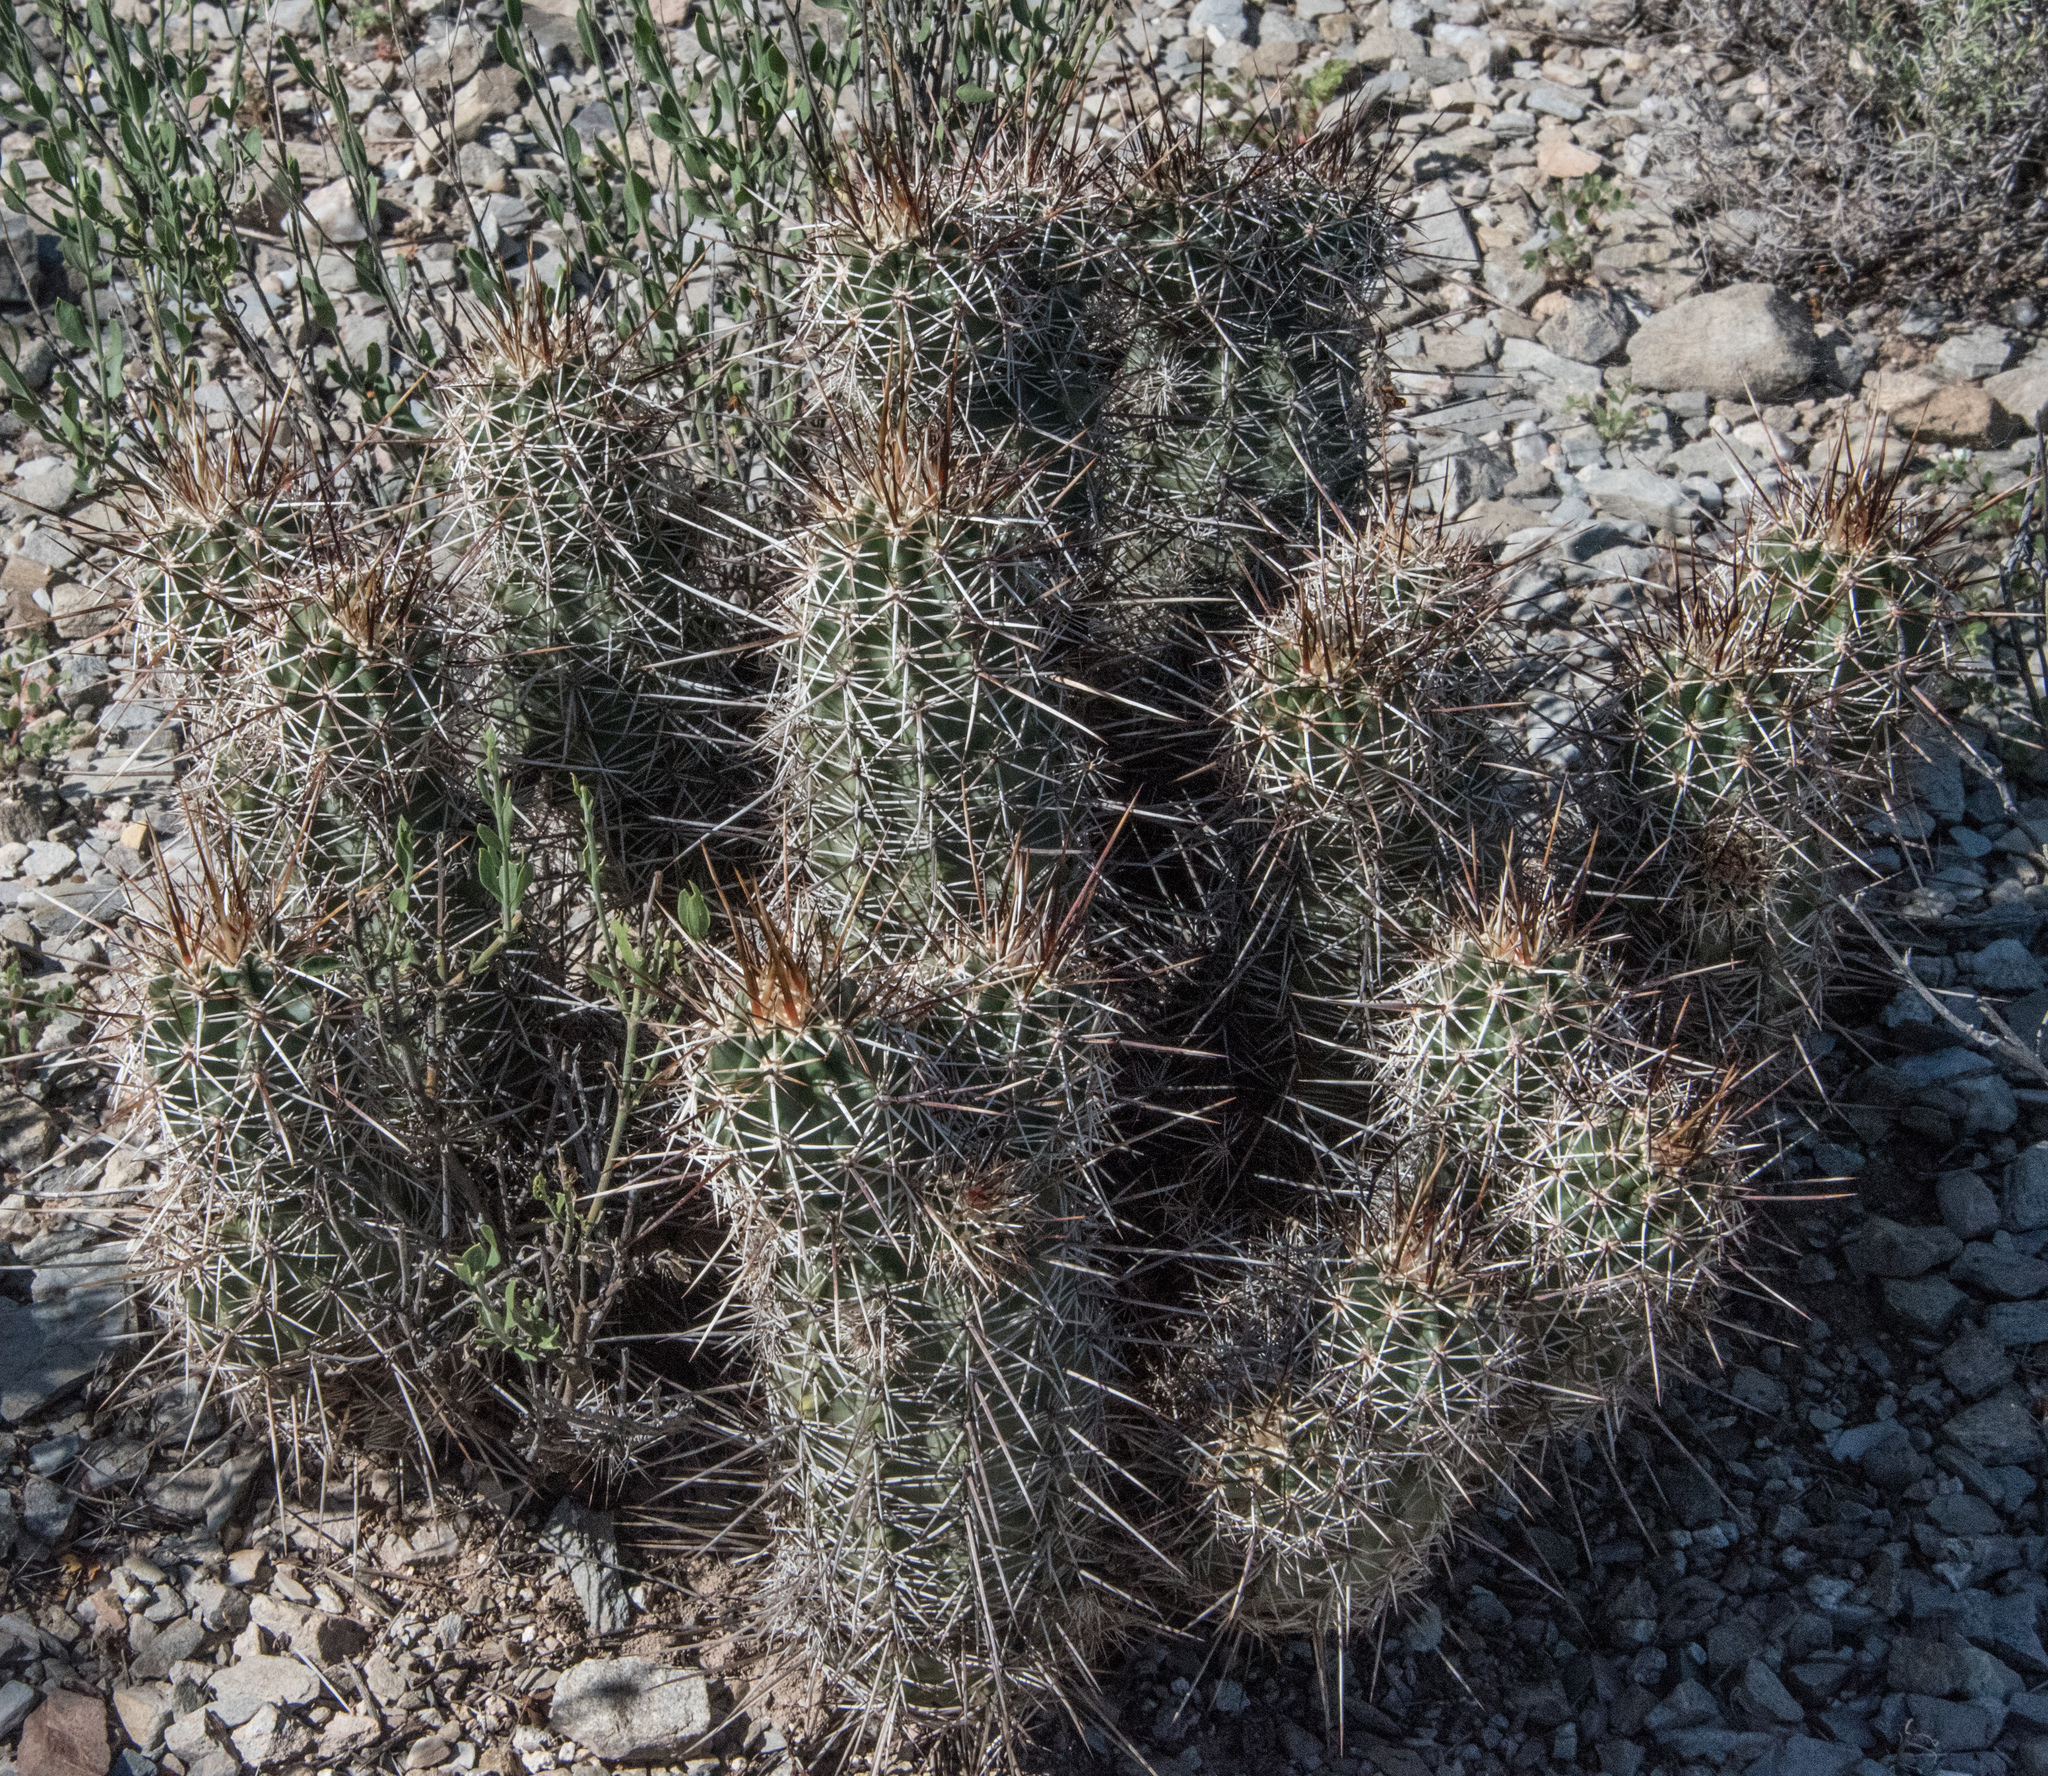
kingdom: Plantae
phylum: Tracheophyta
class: Magnoliopsida
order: Caryophyllales
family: Cactaceae
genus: Echinocereus
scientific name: Echinocereus fasciculatus
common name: Bundle hedgehog
